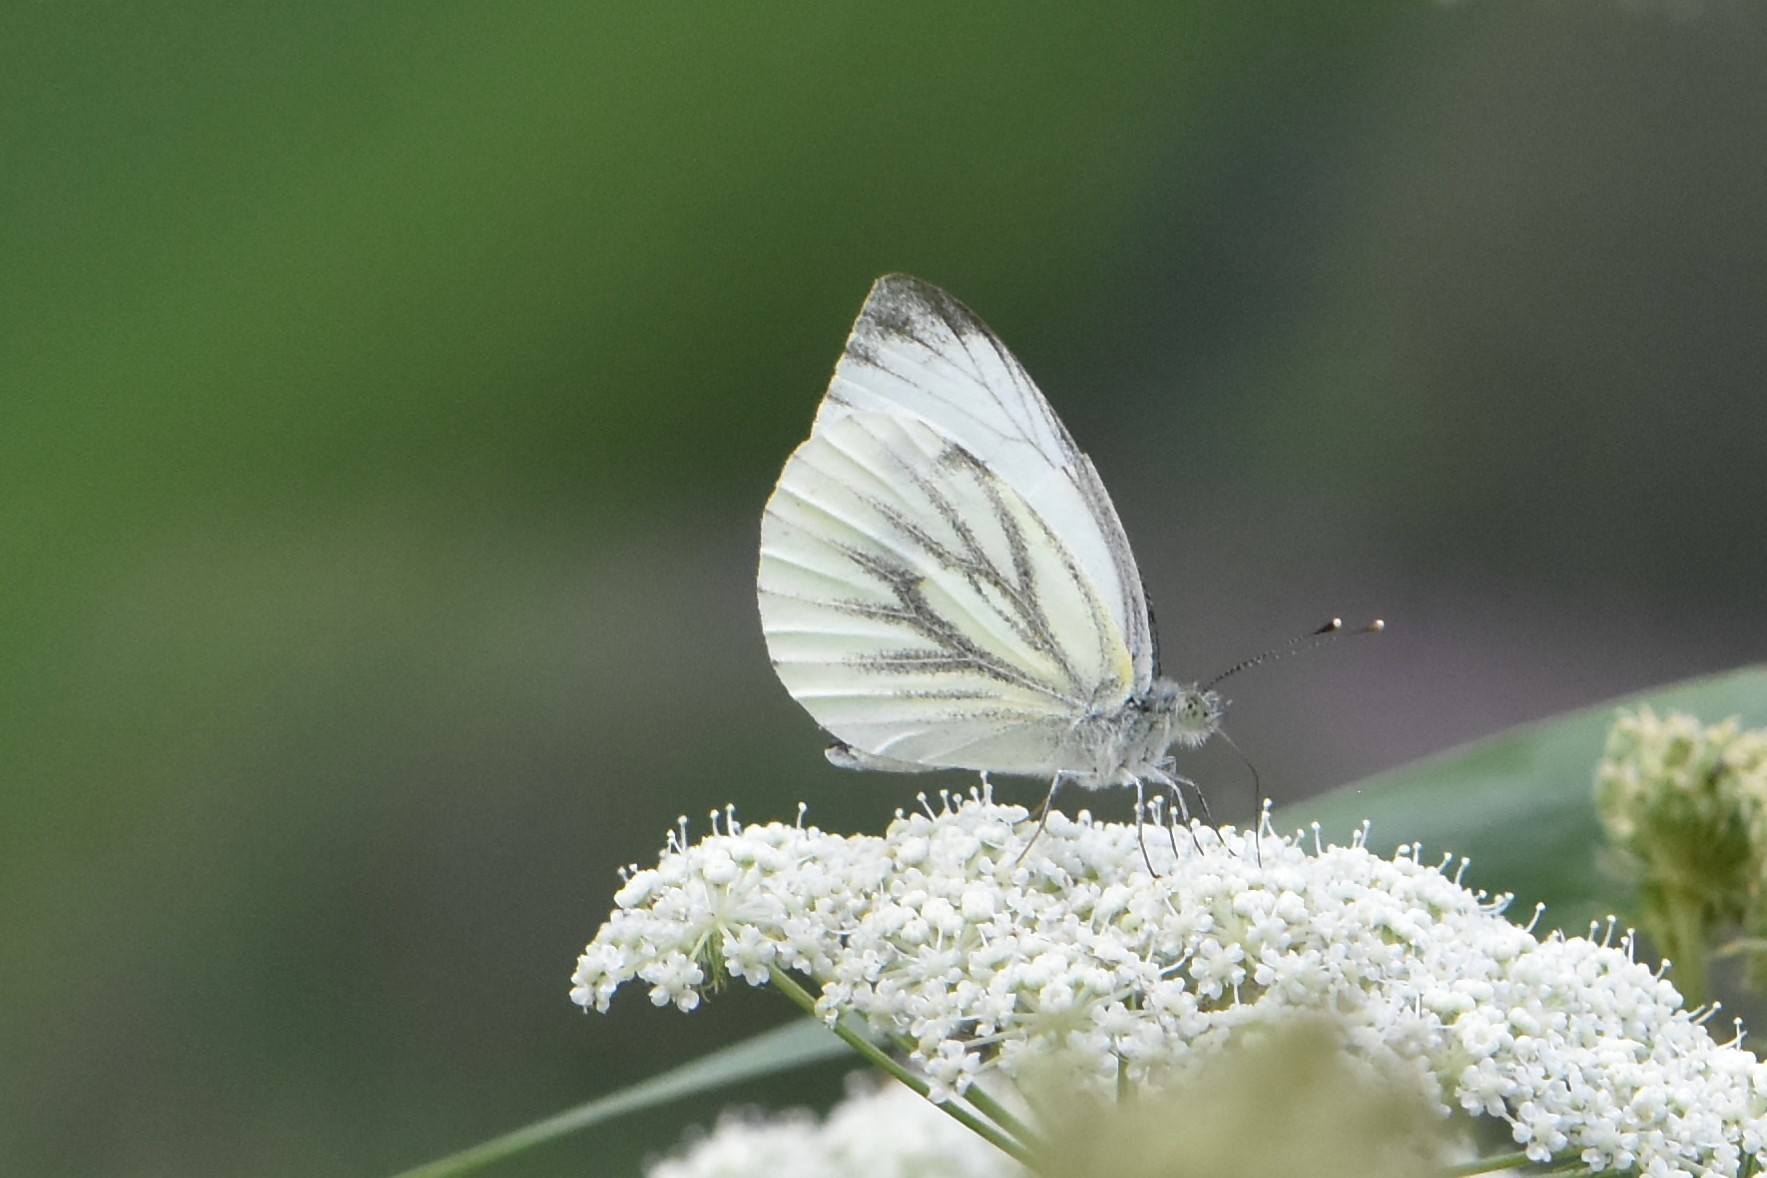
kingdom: Animalia
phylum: Arthropoda
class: Insecta
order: Lepidoptera
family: Pieridae
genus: Pieris
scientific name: Pieris napi
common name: Green-veined white
